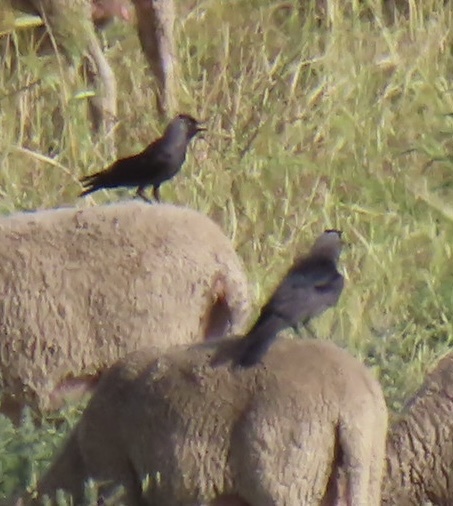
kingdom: Animalia
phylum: Chordata
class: Aves
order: Passeriformes
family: Corvidae
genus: Coloeus
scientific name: Coloeus monedula
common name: Western jackdaw
